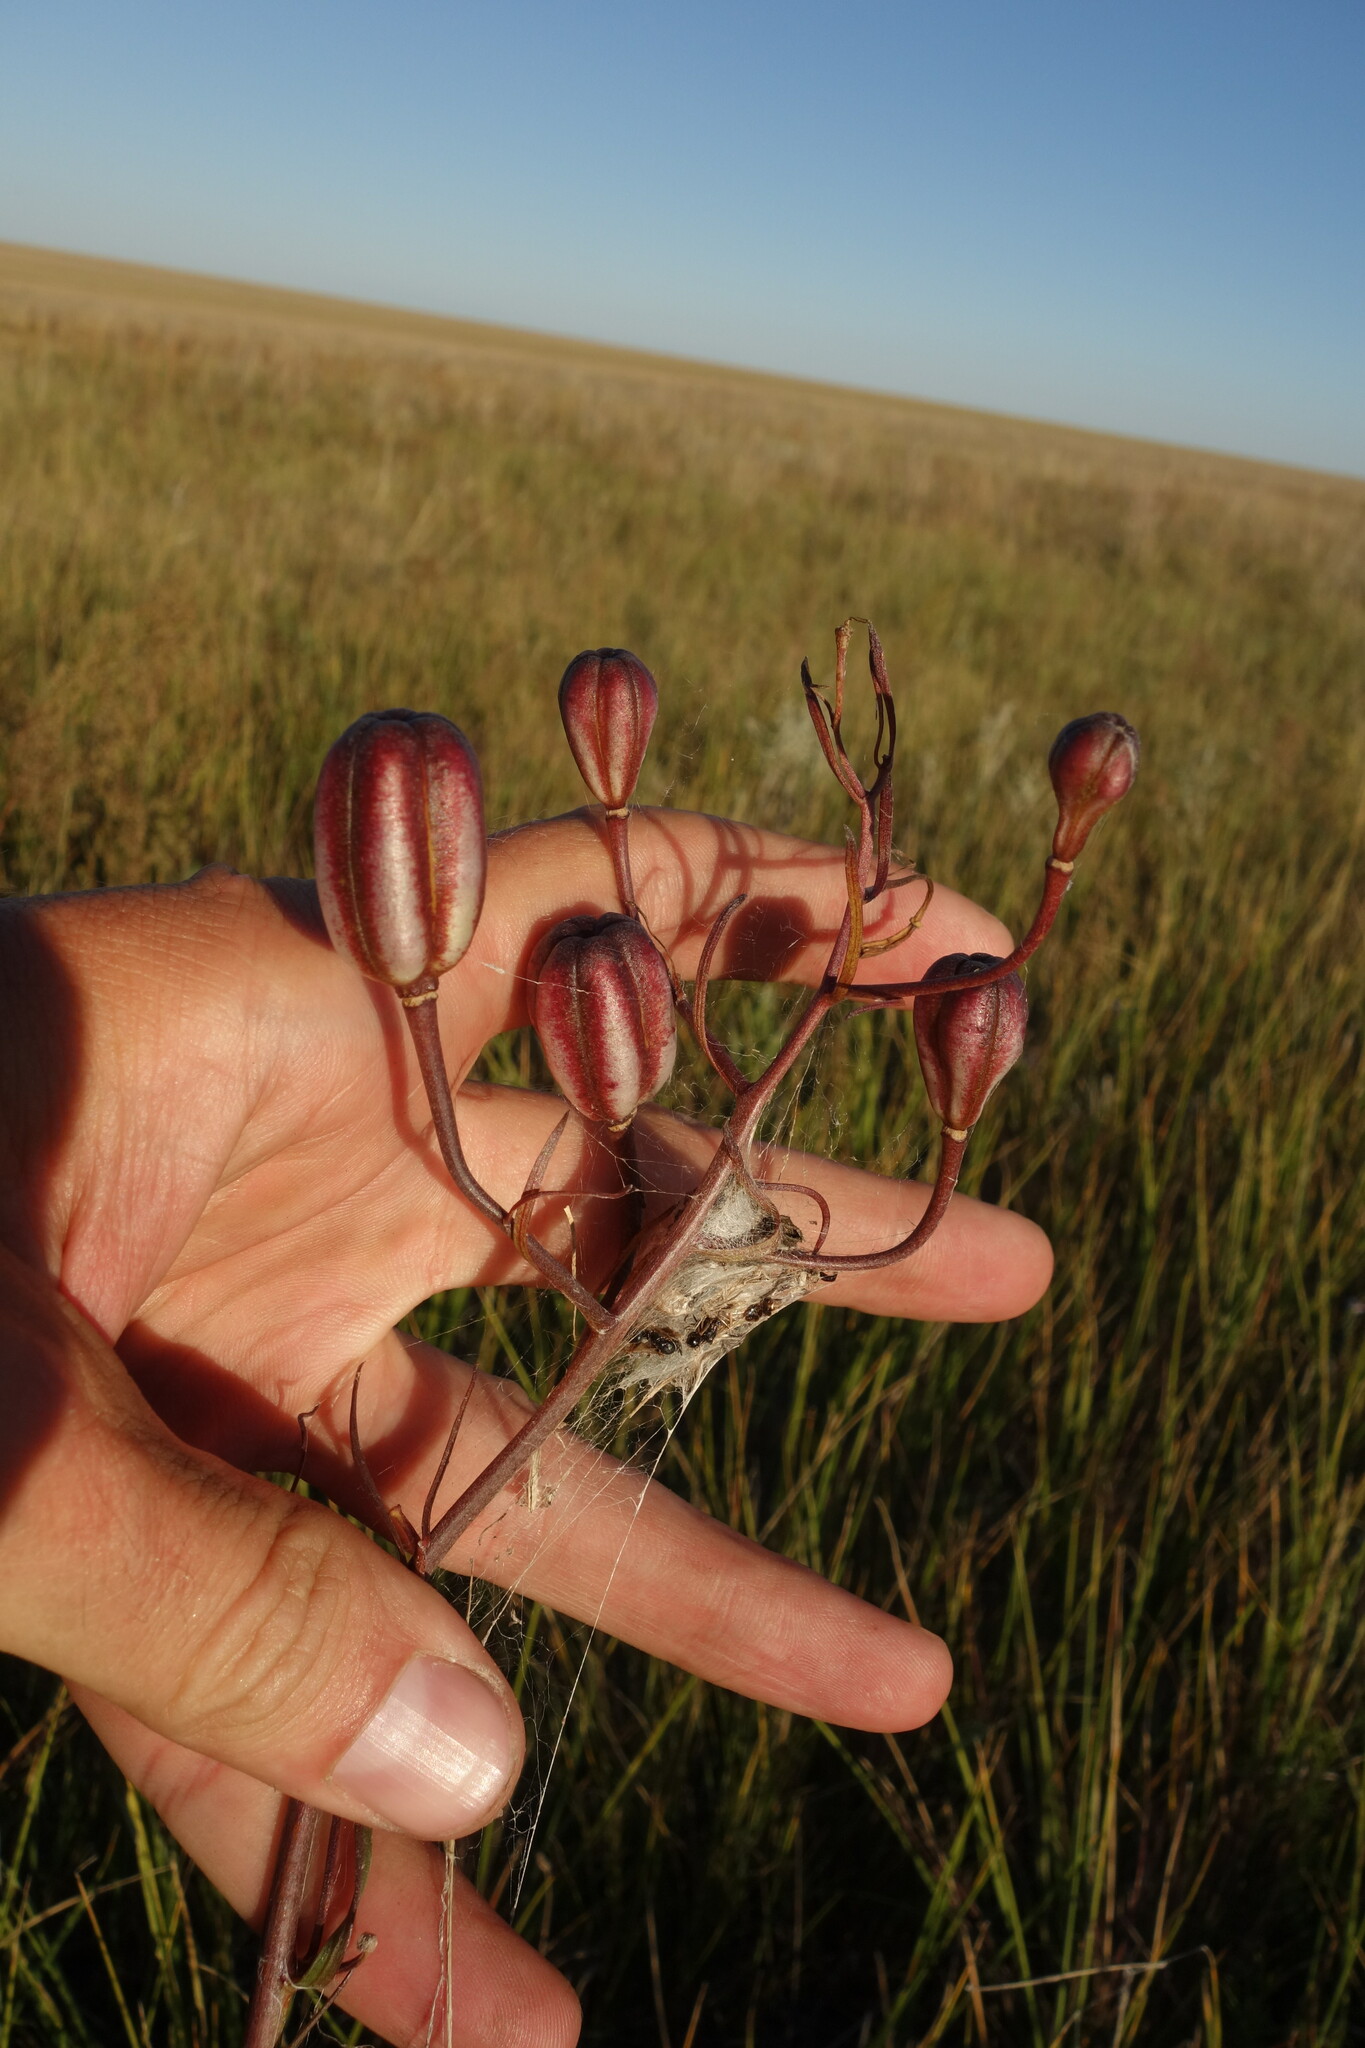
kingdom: Plantae
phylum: Tracheophyta
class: Liliopsida
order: Liliales
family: Liliaceae
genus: Lilium
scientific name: Lilium pumilum
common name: Coral lily
